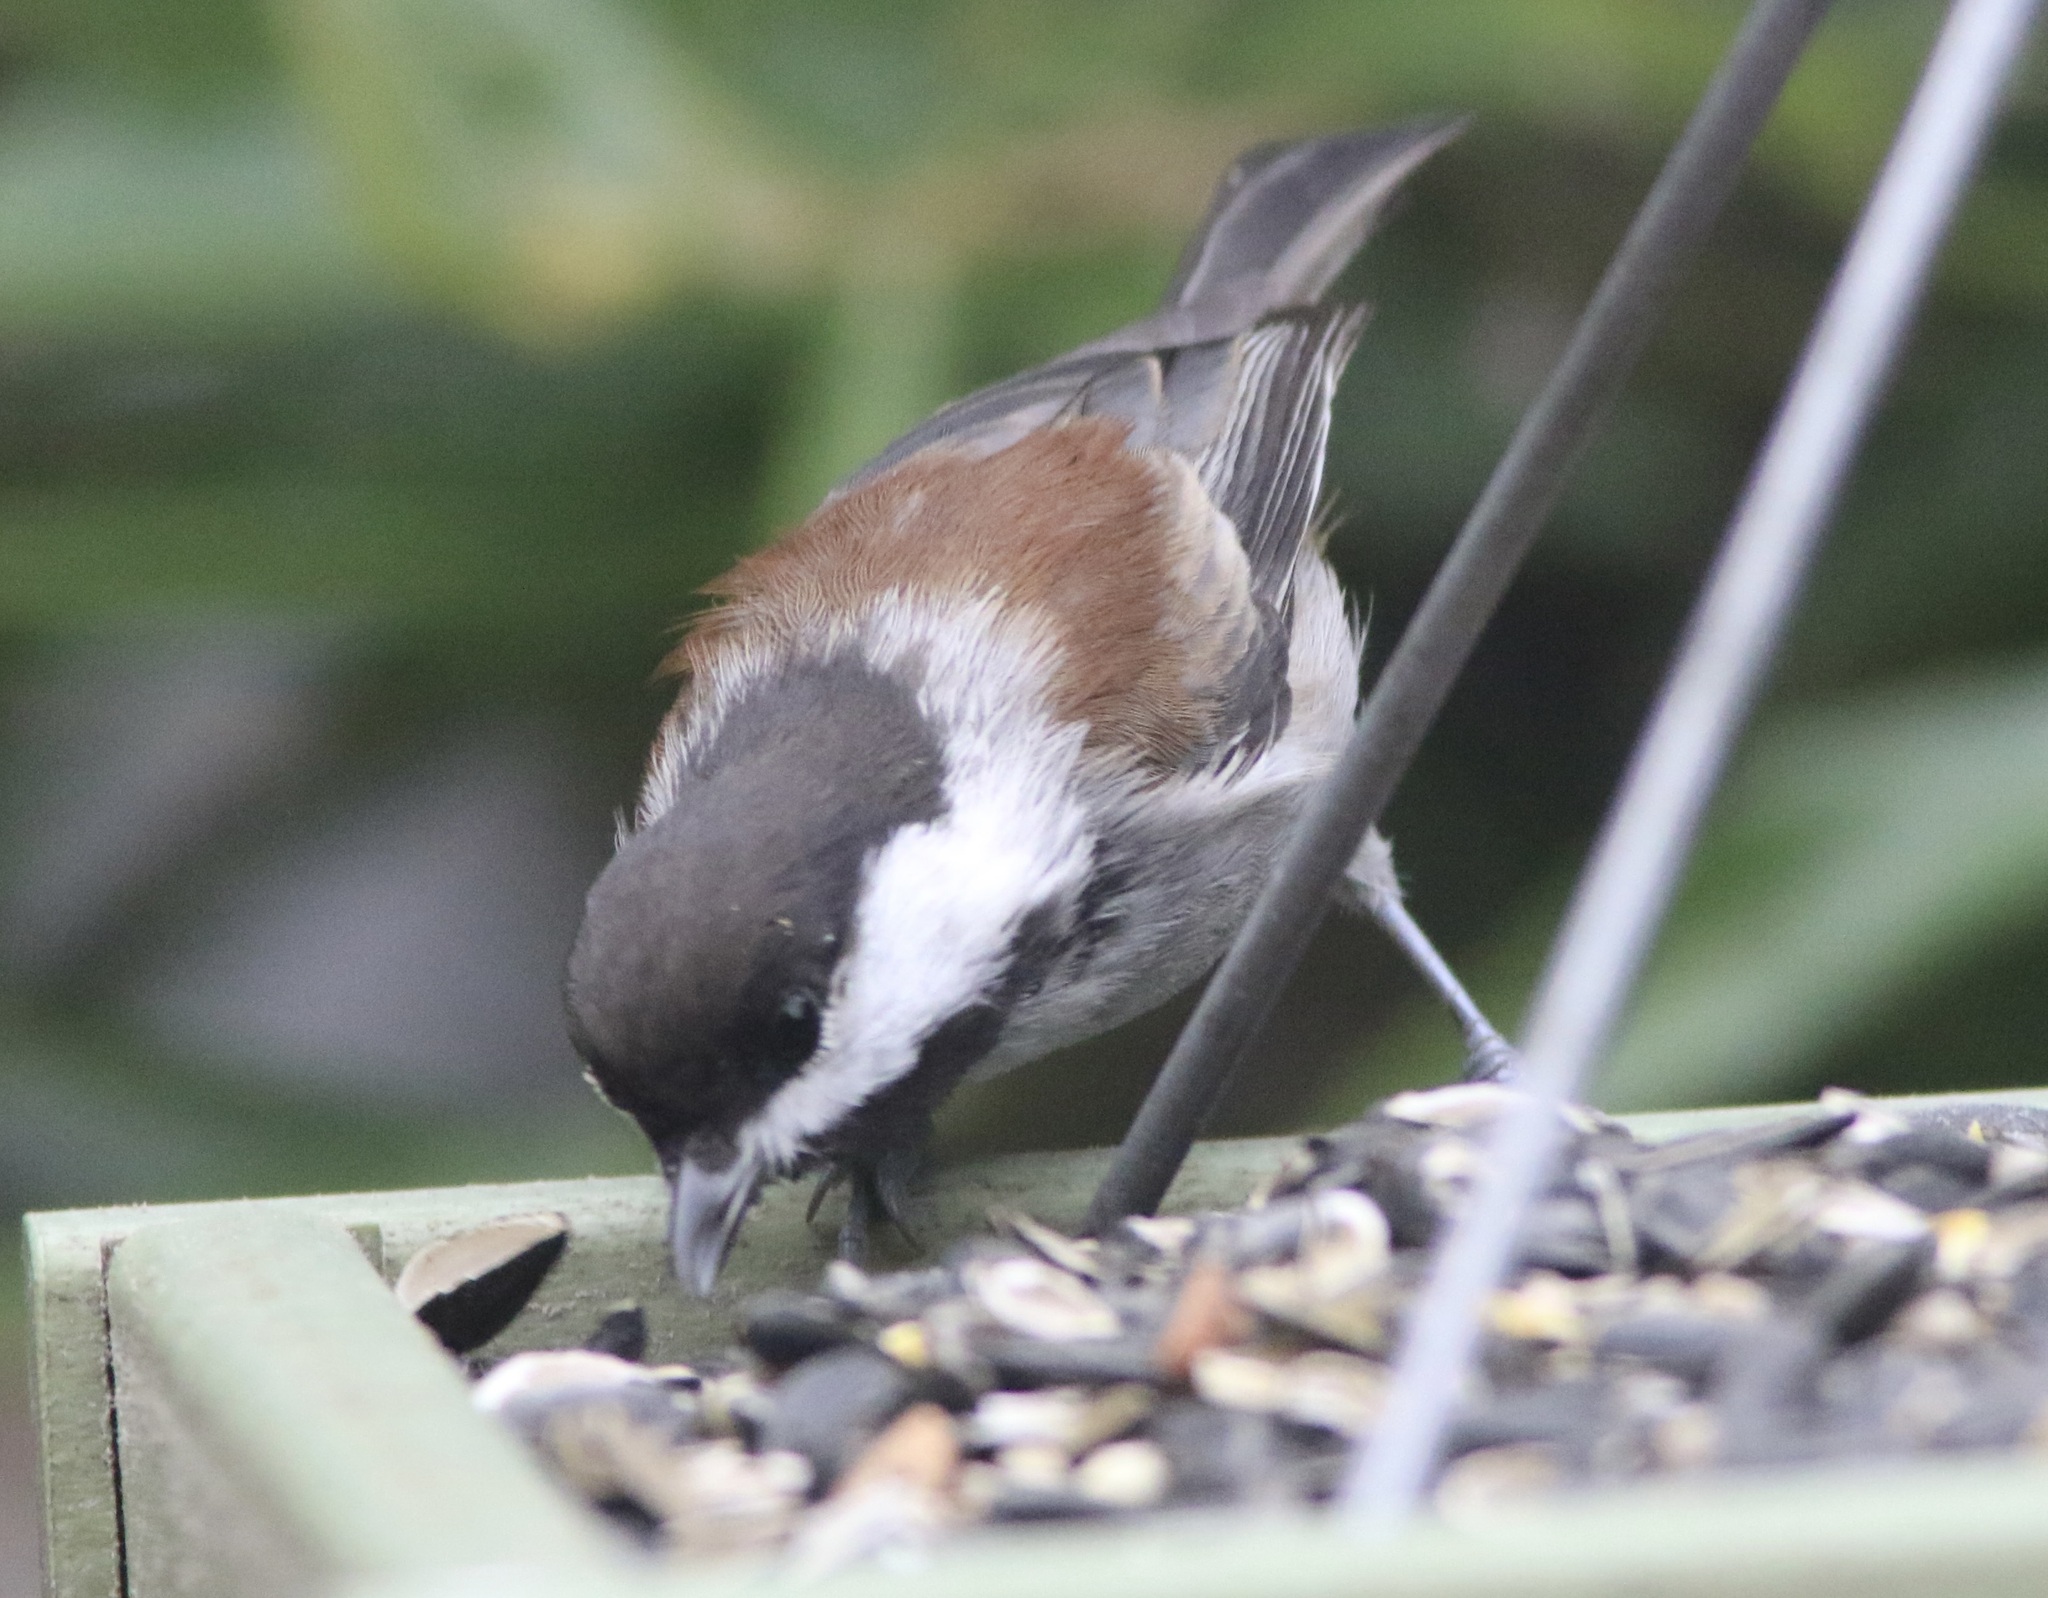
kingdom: Animalia
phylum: Chordata
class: Aves
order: Passeriformes
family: Paridae
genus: Poecile
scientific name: Poecile rufescens
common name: Chestnut-backed chickadee
